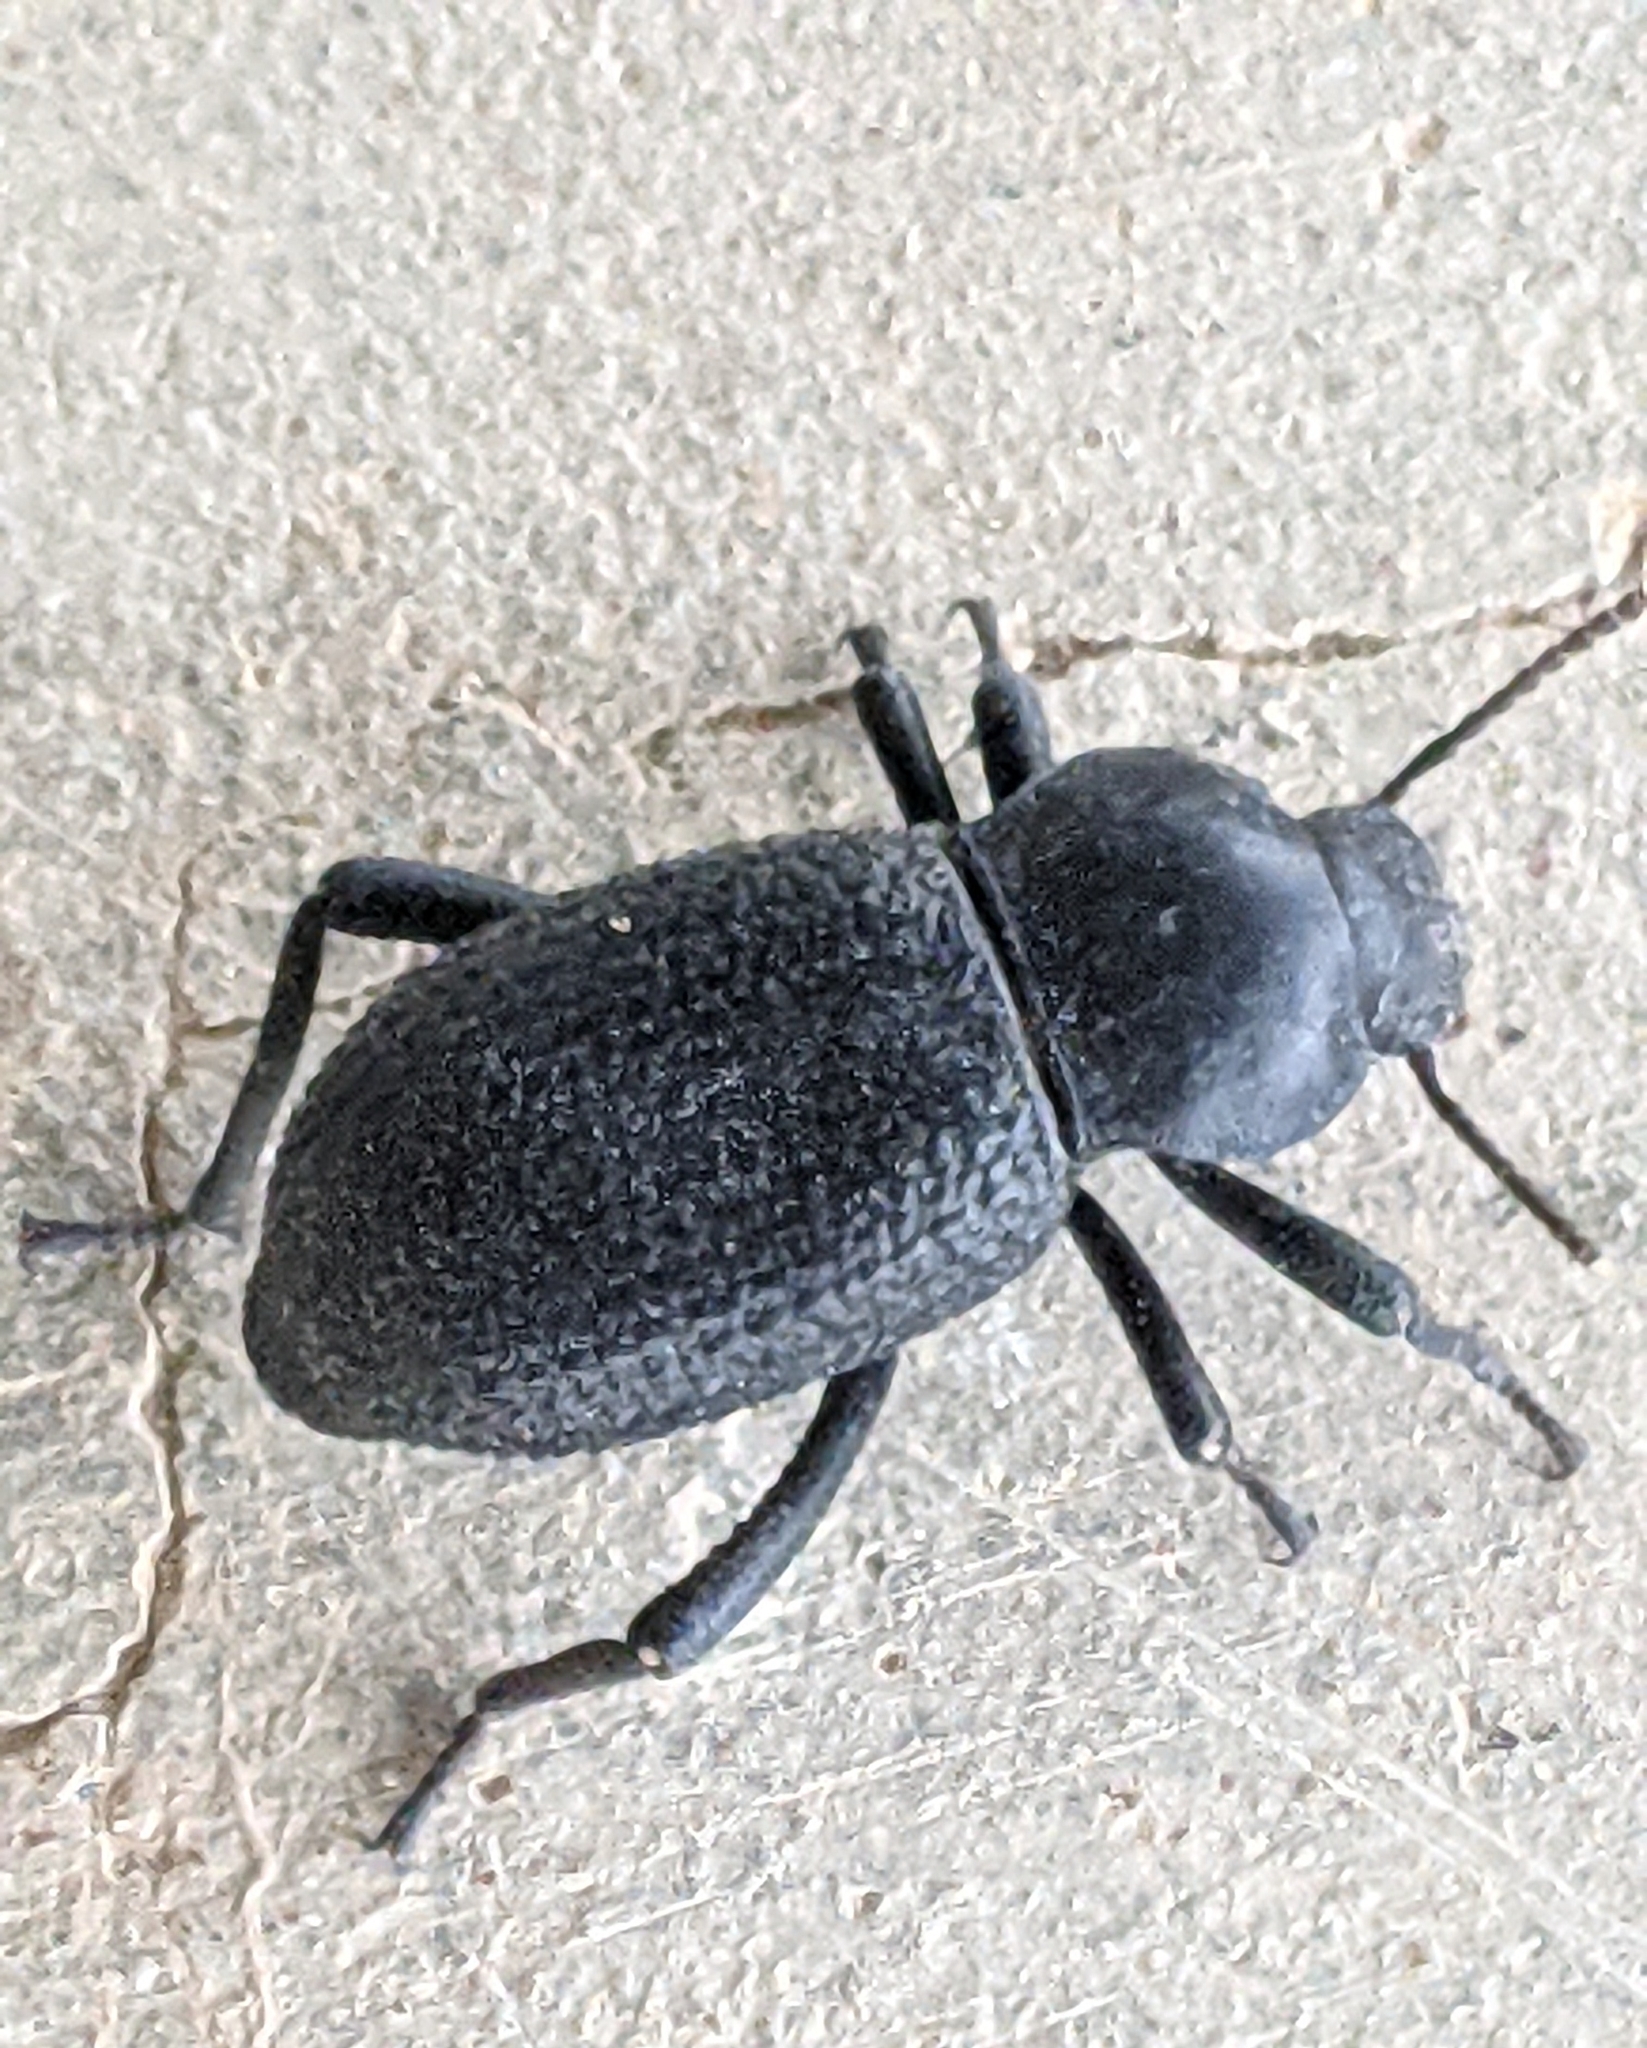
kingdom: Animalia
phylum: Arthropoda
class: Insecta
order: Coleoptera
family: Tenebrionidae
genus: Cryptoglossa
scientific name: Cryptoglossa infausta
